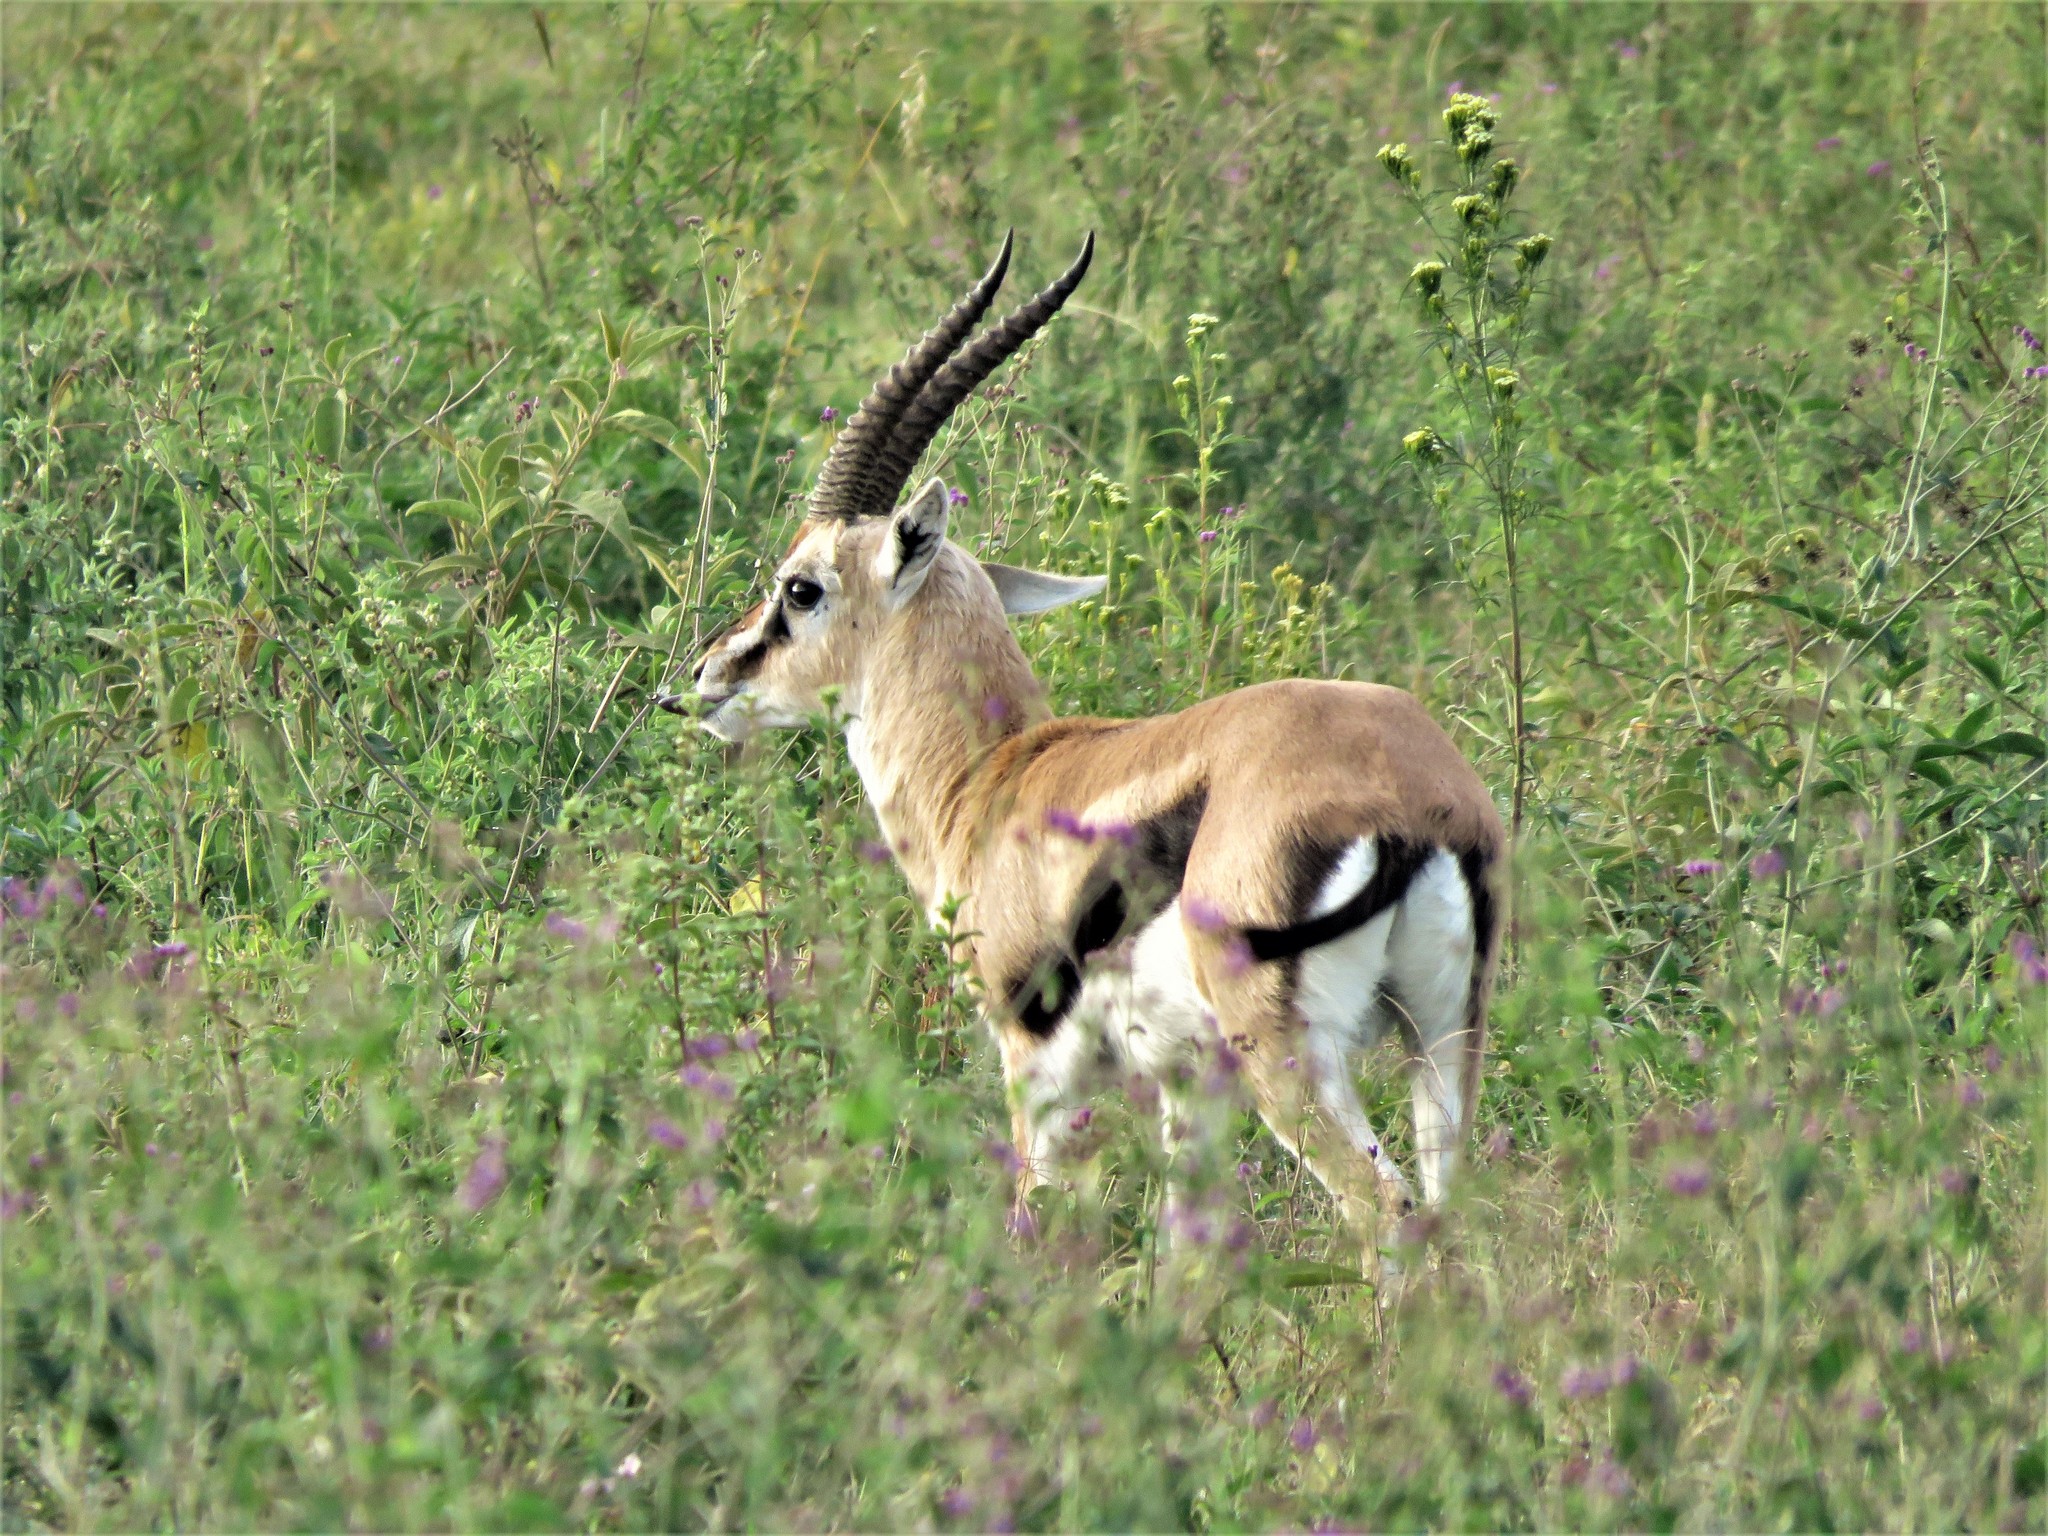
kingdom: Animalia
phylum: Chordata
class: Mammalia
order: Artiodactyla
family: Bovidae
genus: Eudorcas
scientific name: Eudorcas thomsonii
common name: Thomson's gazelle
